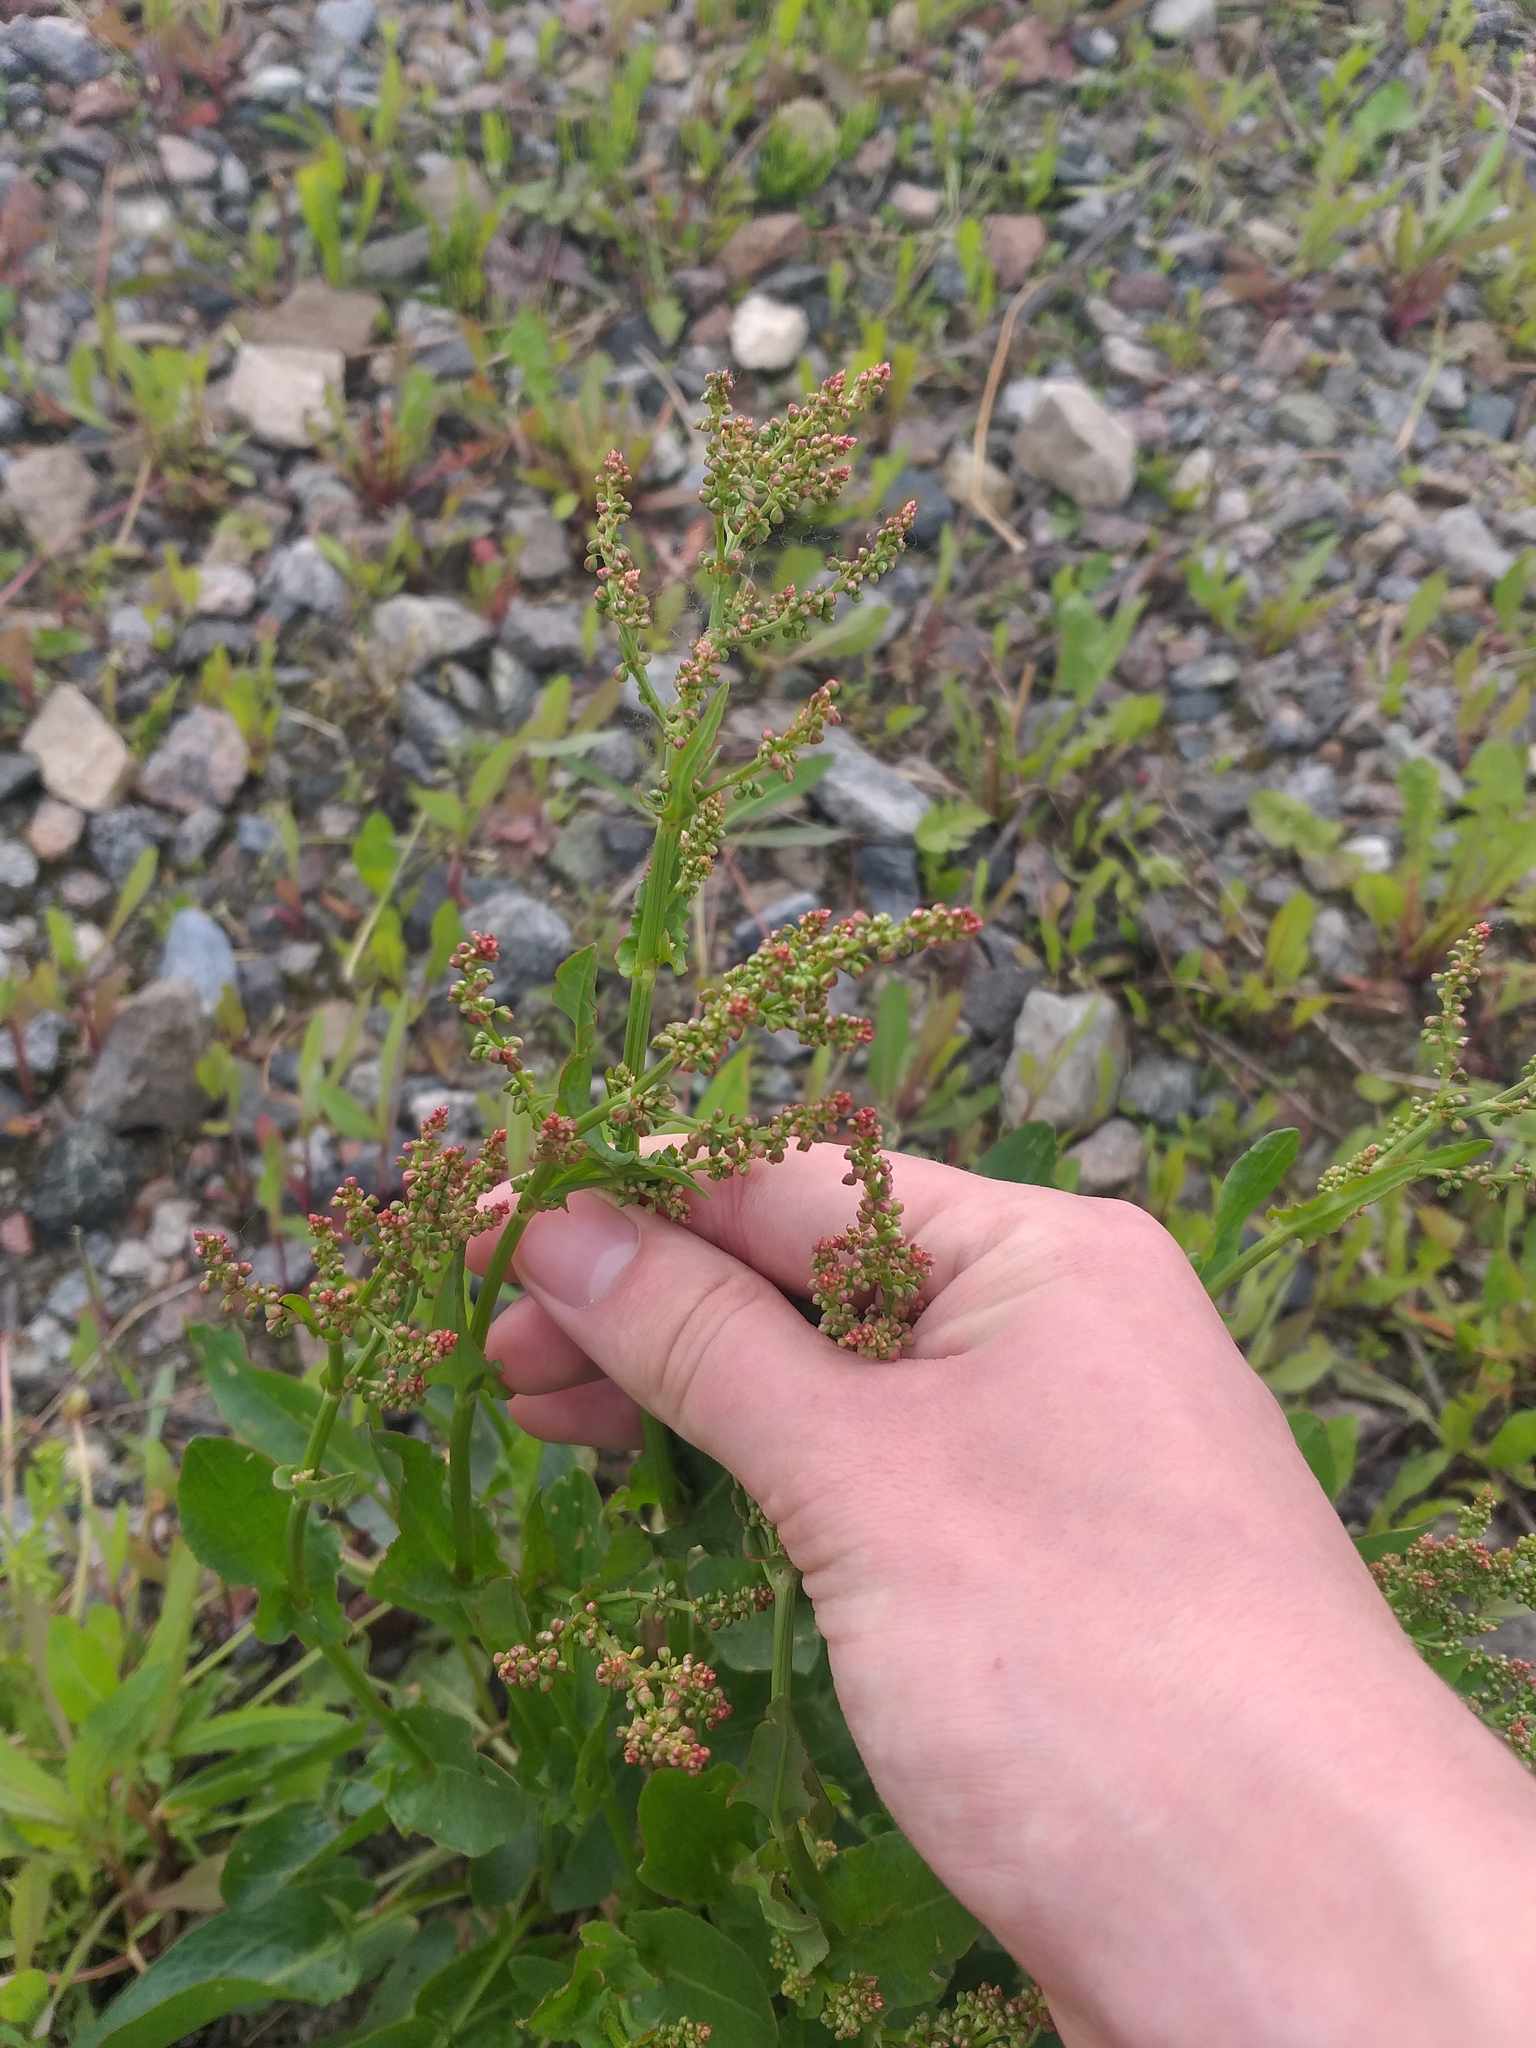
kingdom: Plantae
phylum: Tracheophyta
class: Magnoliopsida
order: Caryophyllales
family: Polygonaceae
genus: Rumex
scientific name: Rumex thyrsiflorus
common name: Garden sorrel
